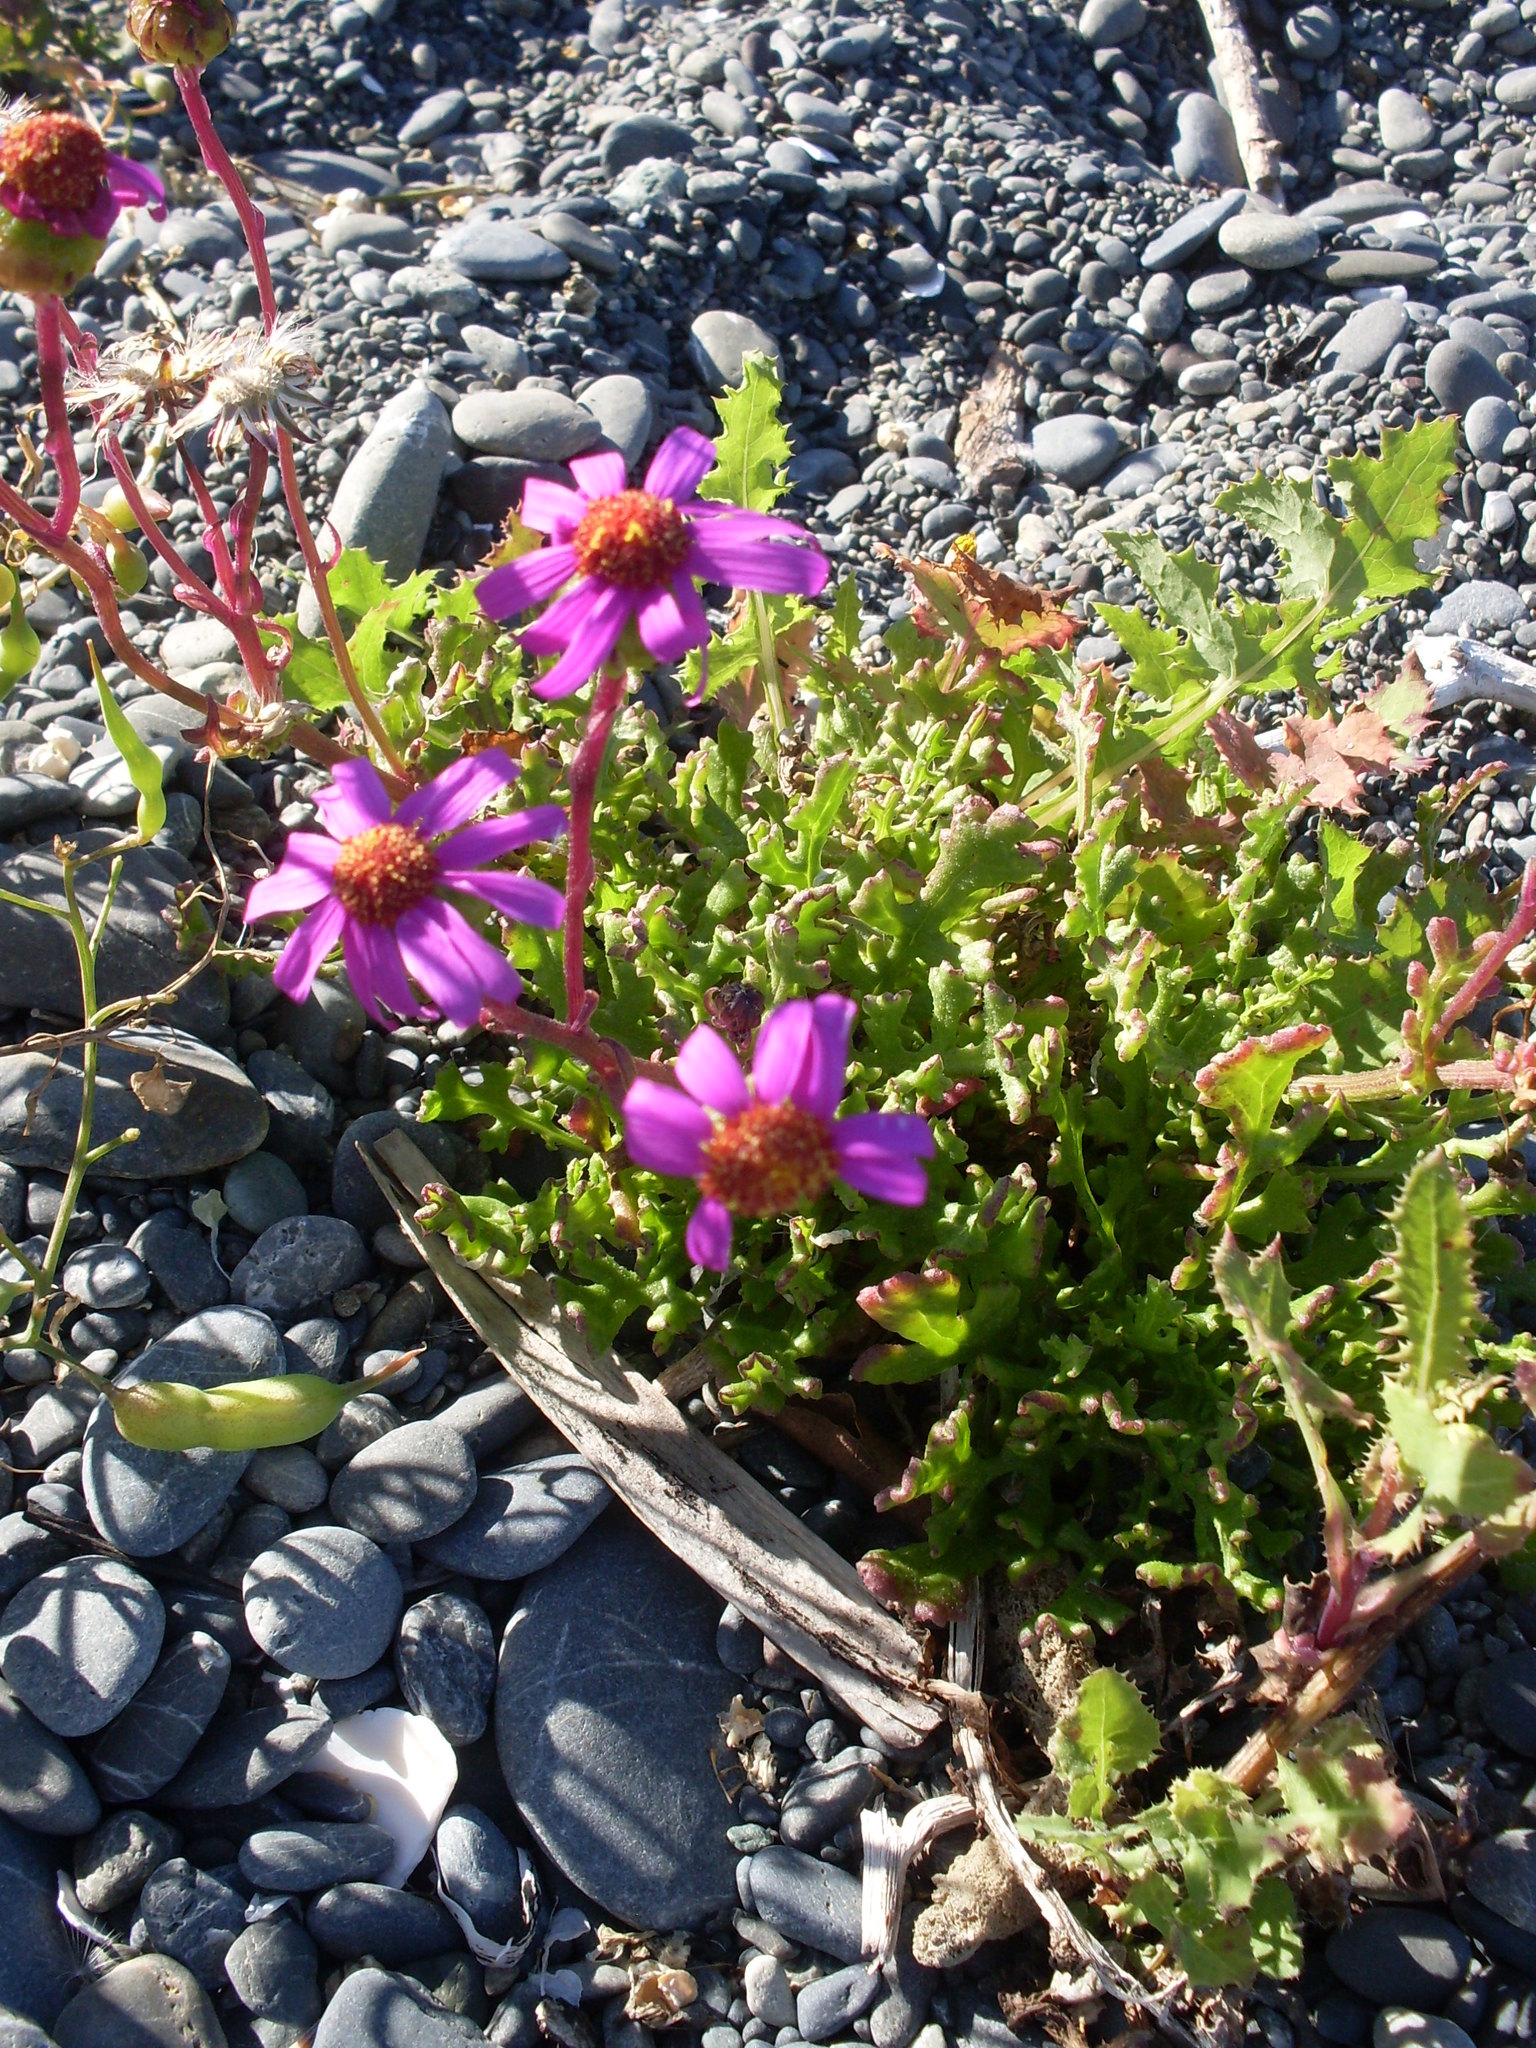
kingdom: Plantae
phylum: Tracheophyta
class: Magnoliopsida
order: Asterales
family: Asteraceae
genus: Senecio
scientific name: Senecio elegans
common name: Purple groundsel
